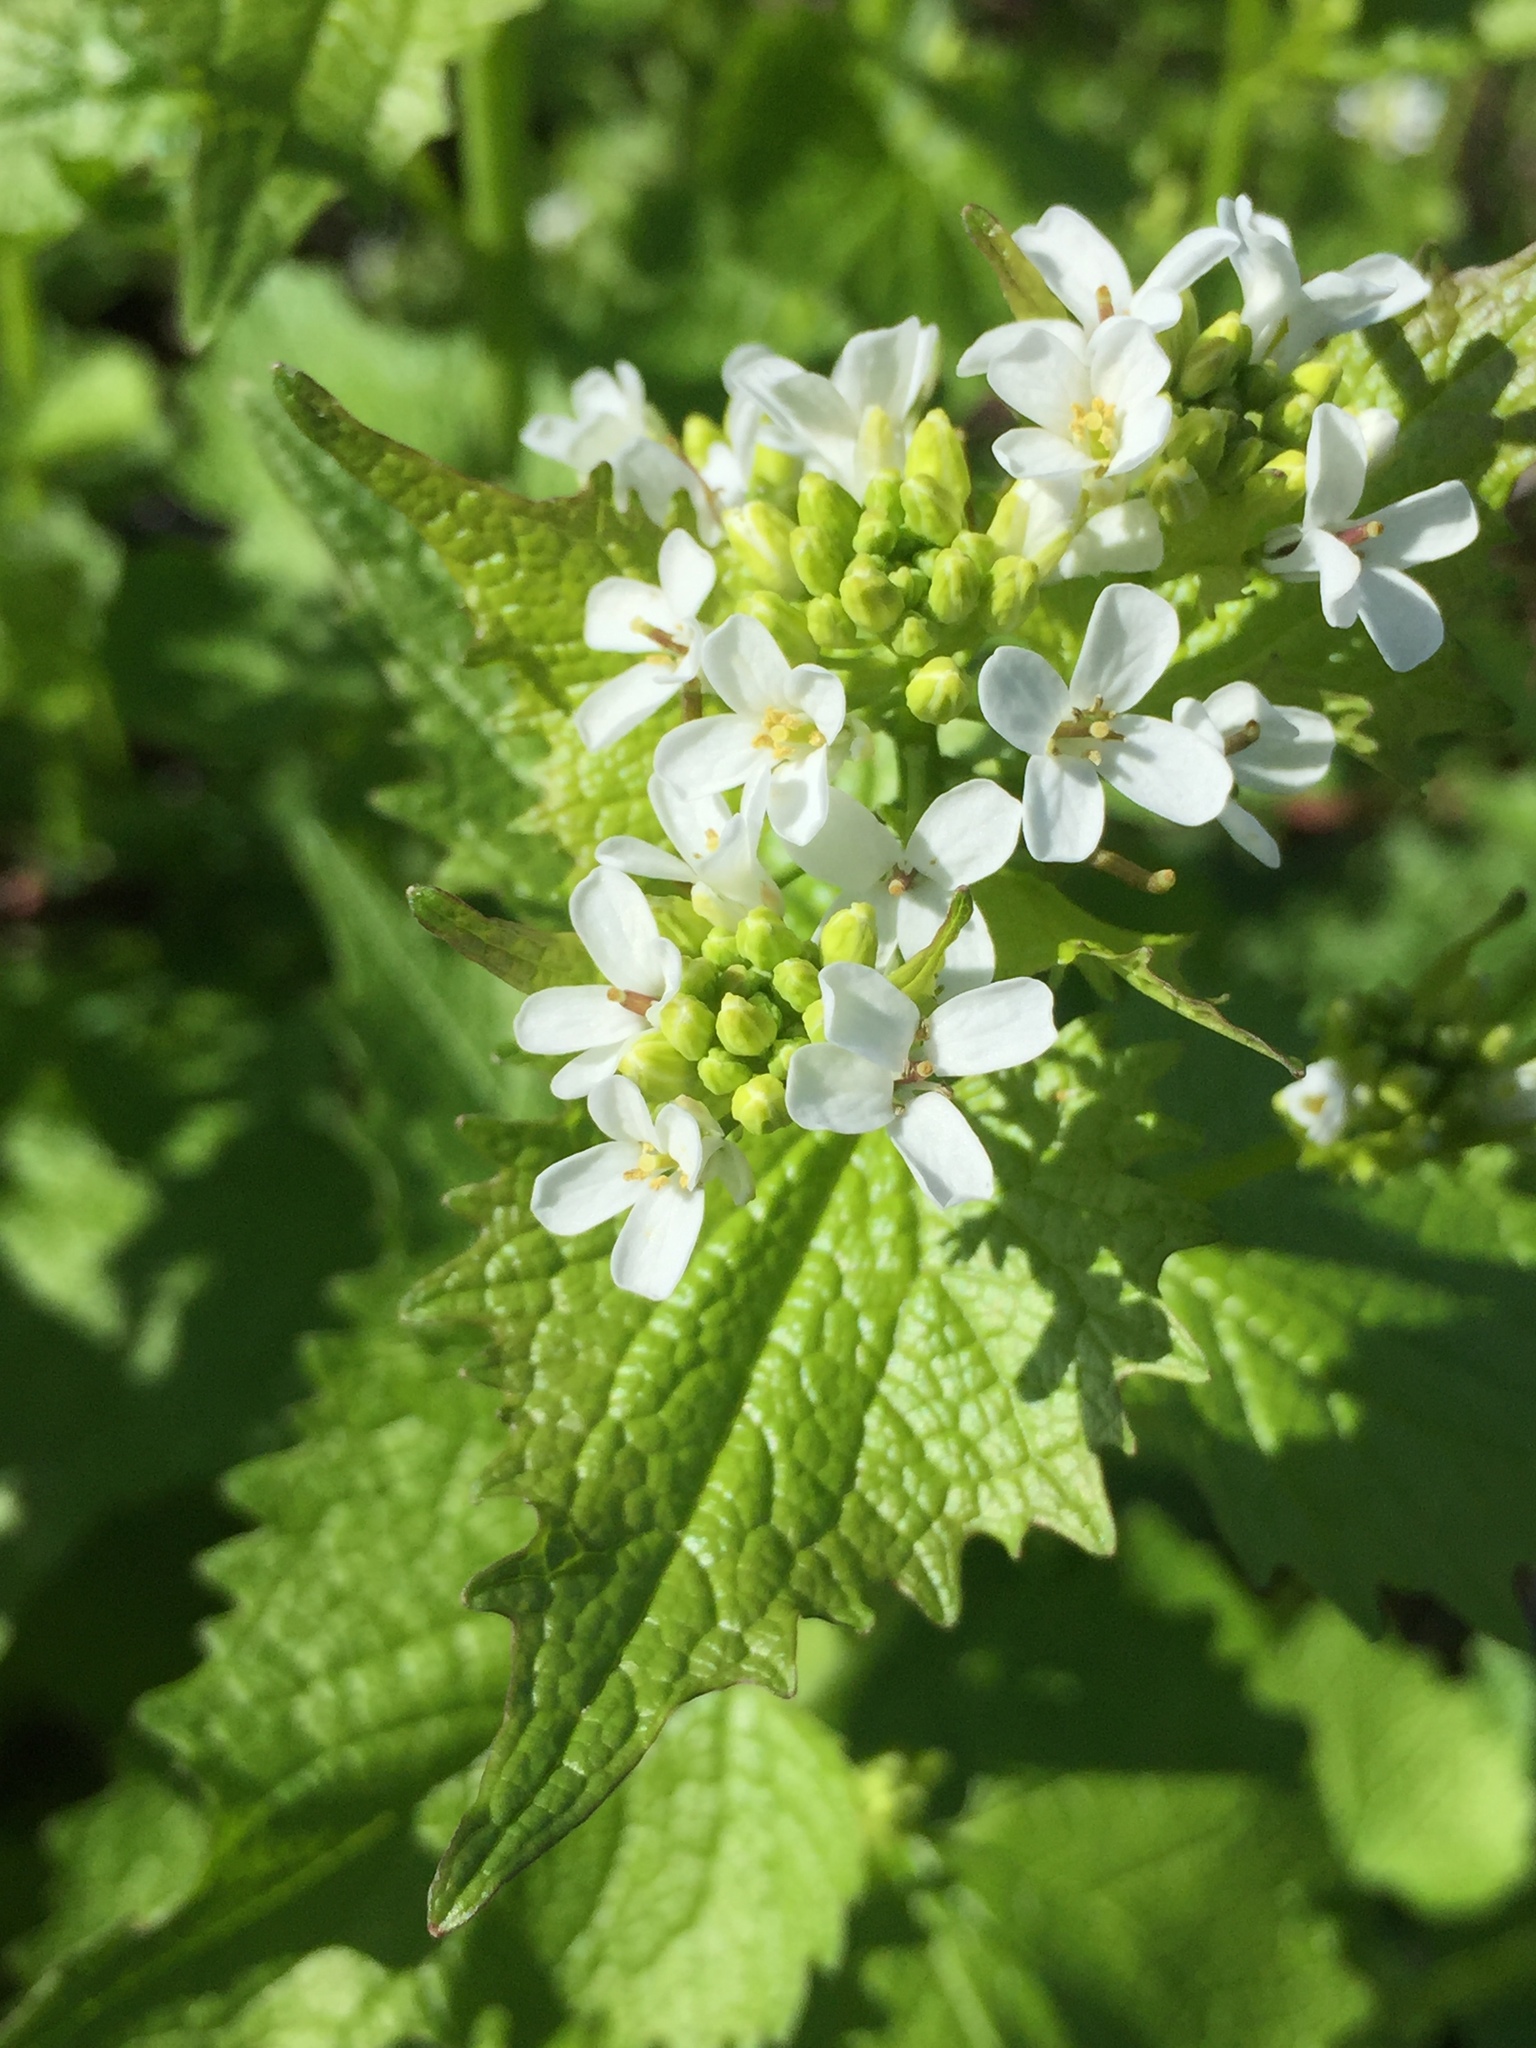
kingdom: Plantae
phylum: Tracheophyta
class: Magnoliopsida
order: Brassicales
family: Brassicaceae
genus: Alliaria
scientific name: Alliaria petiolata
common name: Garlic mustard
